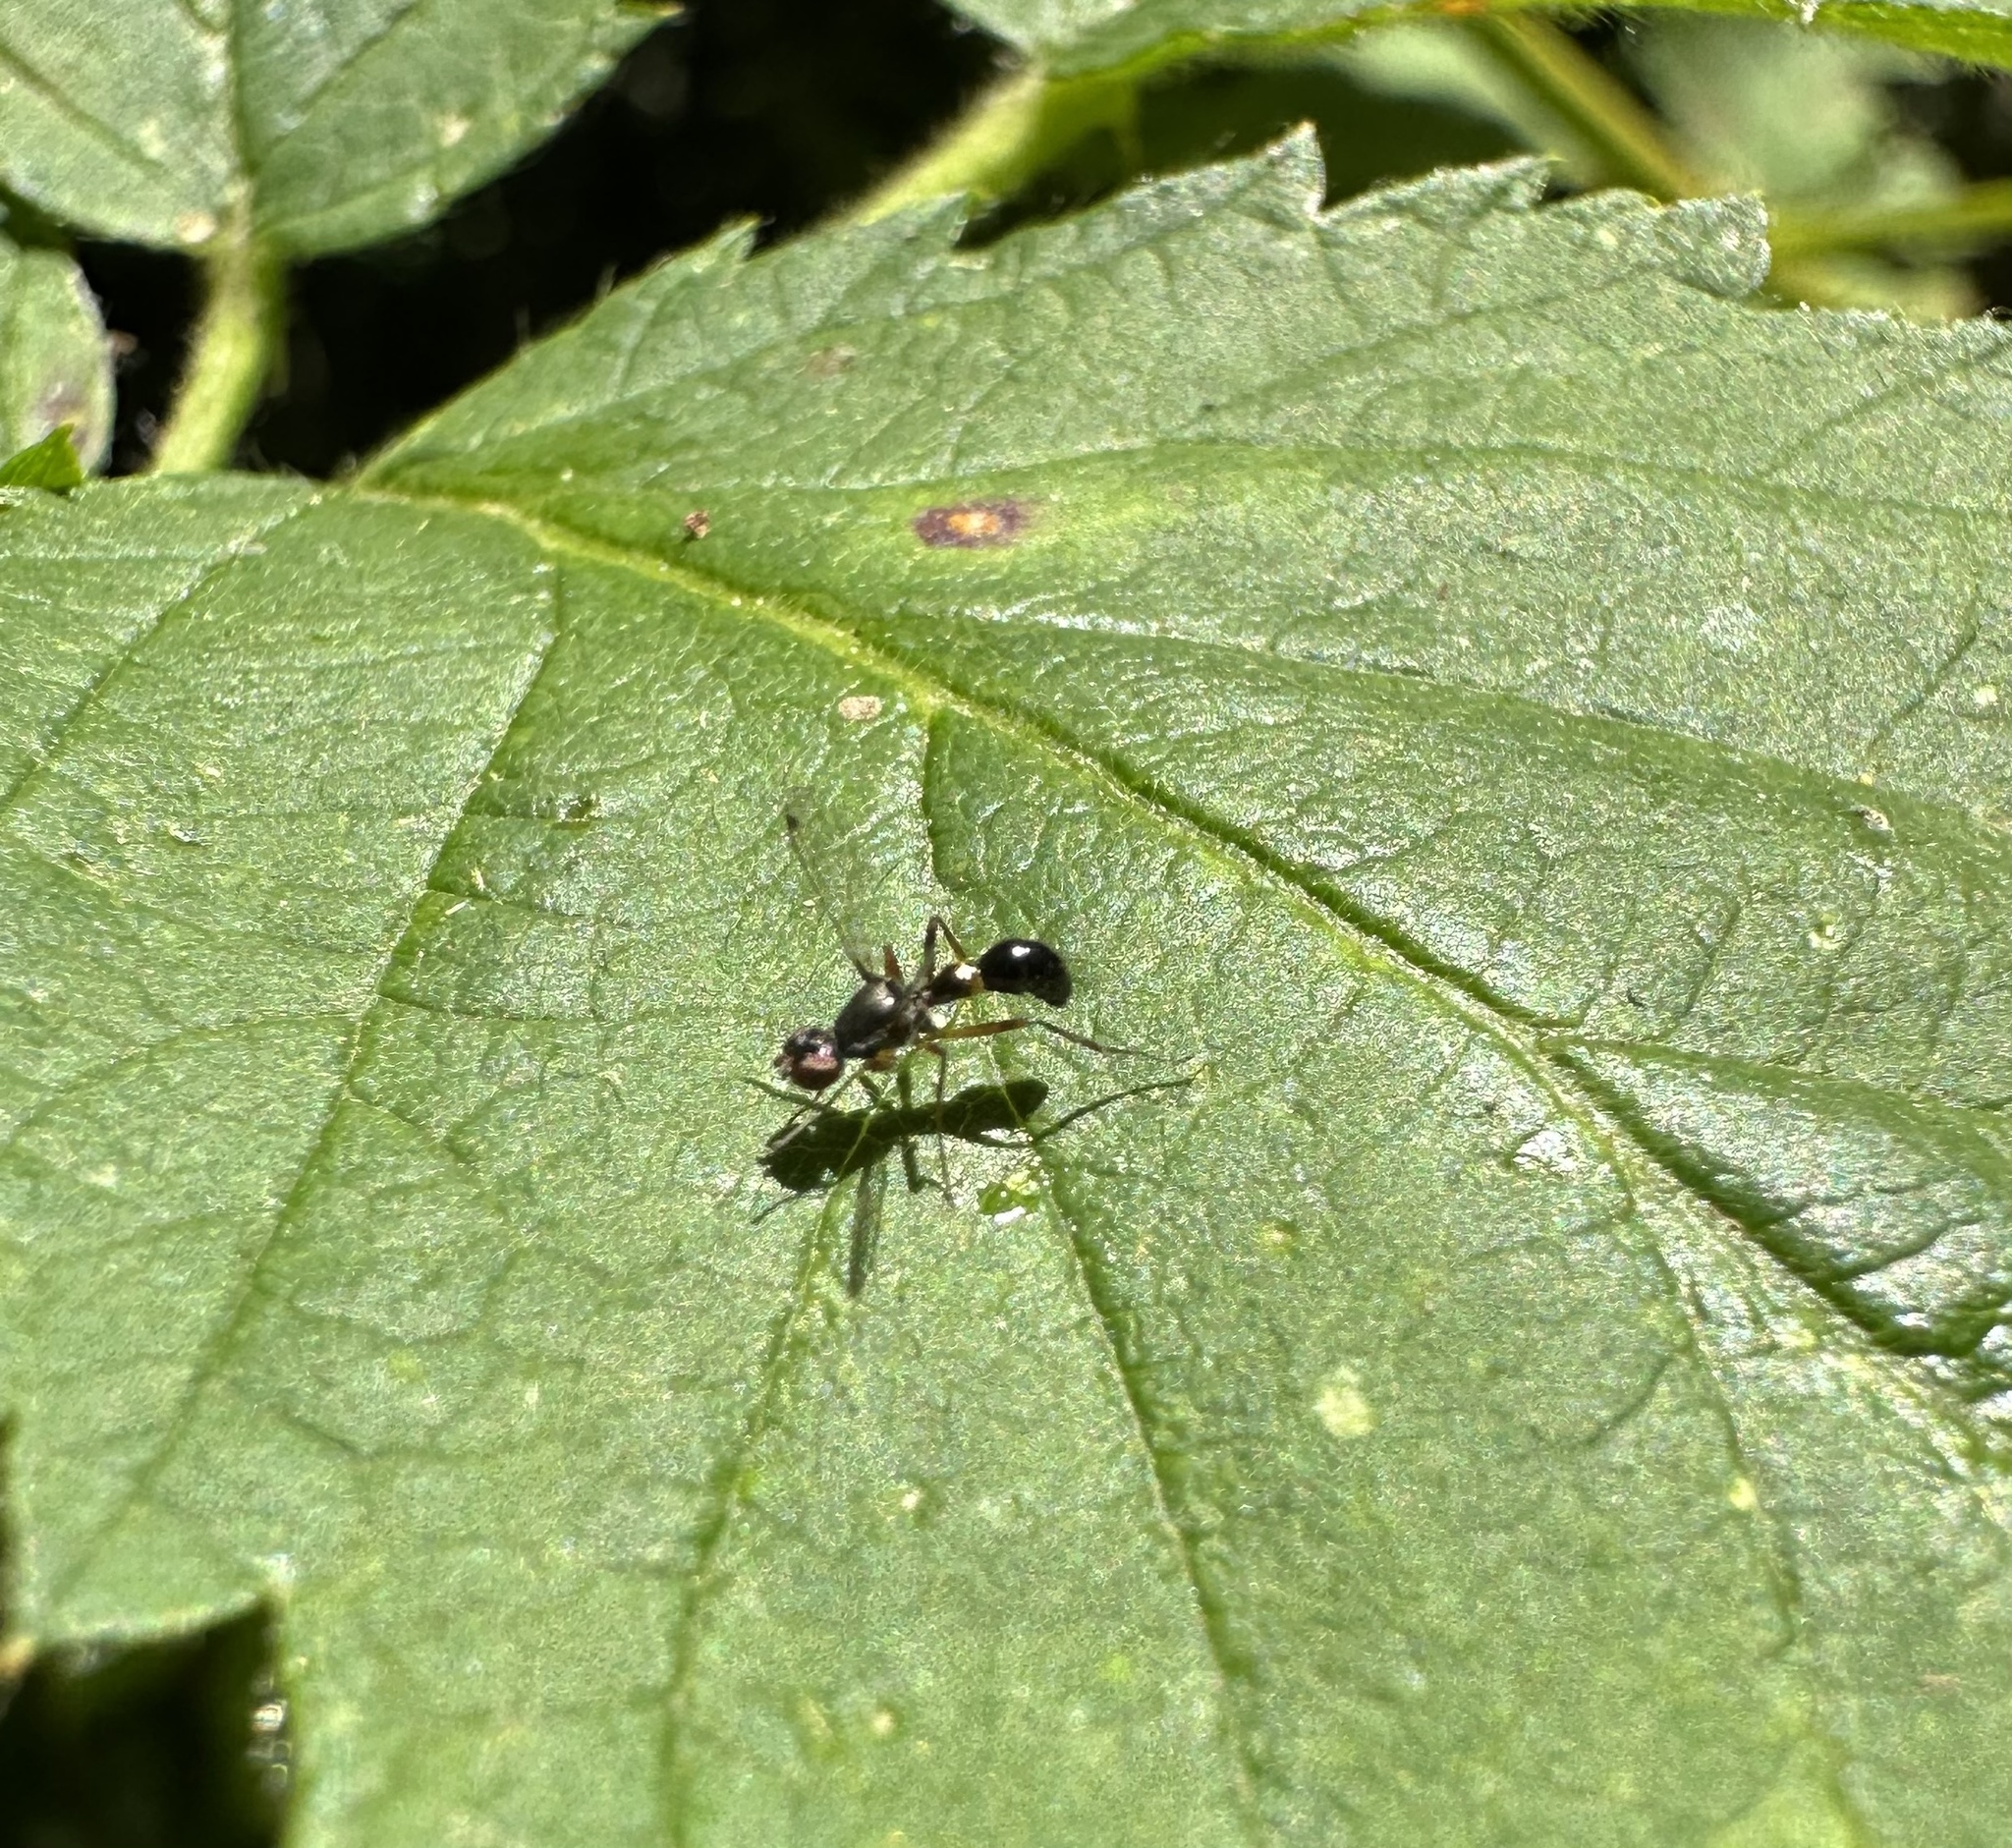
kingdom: Animalia
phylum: Arthropoda
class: Insecta
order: Diptera
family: Sepsidae
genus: Sepsis
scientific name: Sepsis punctum
